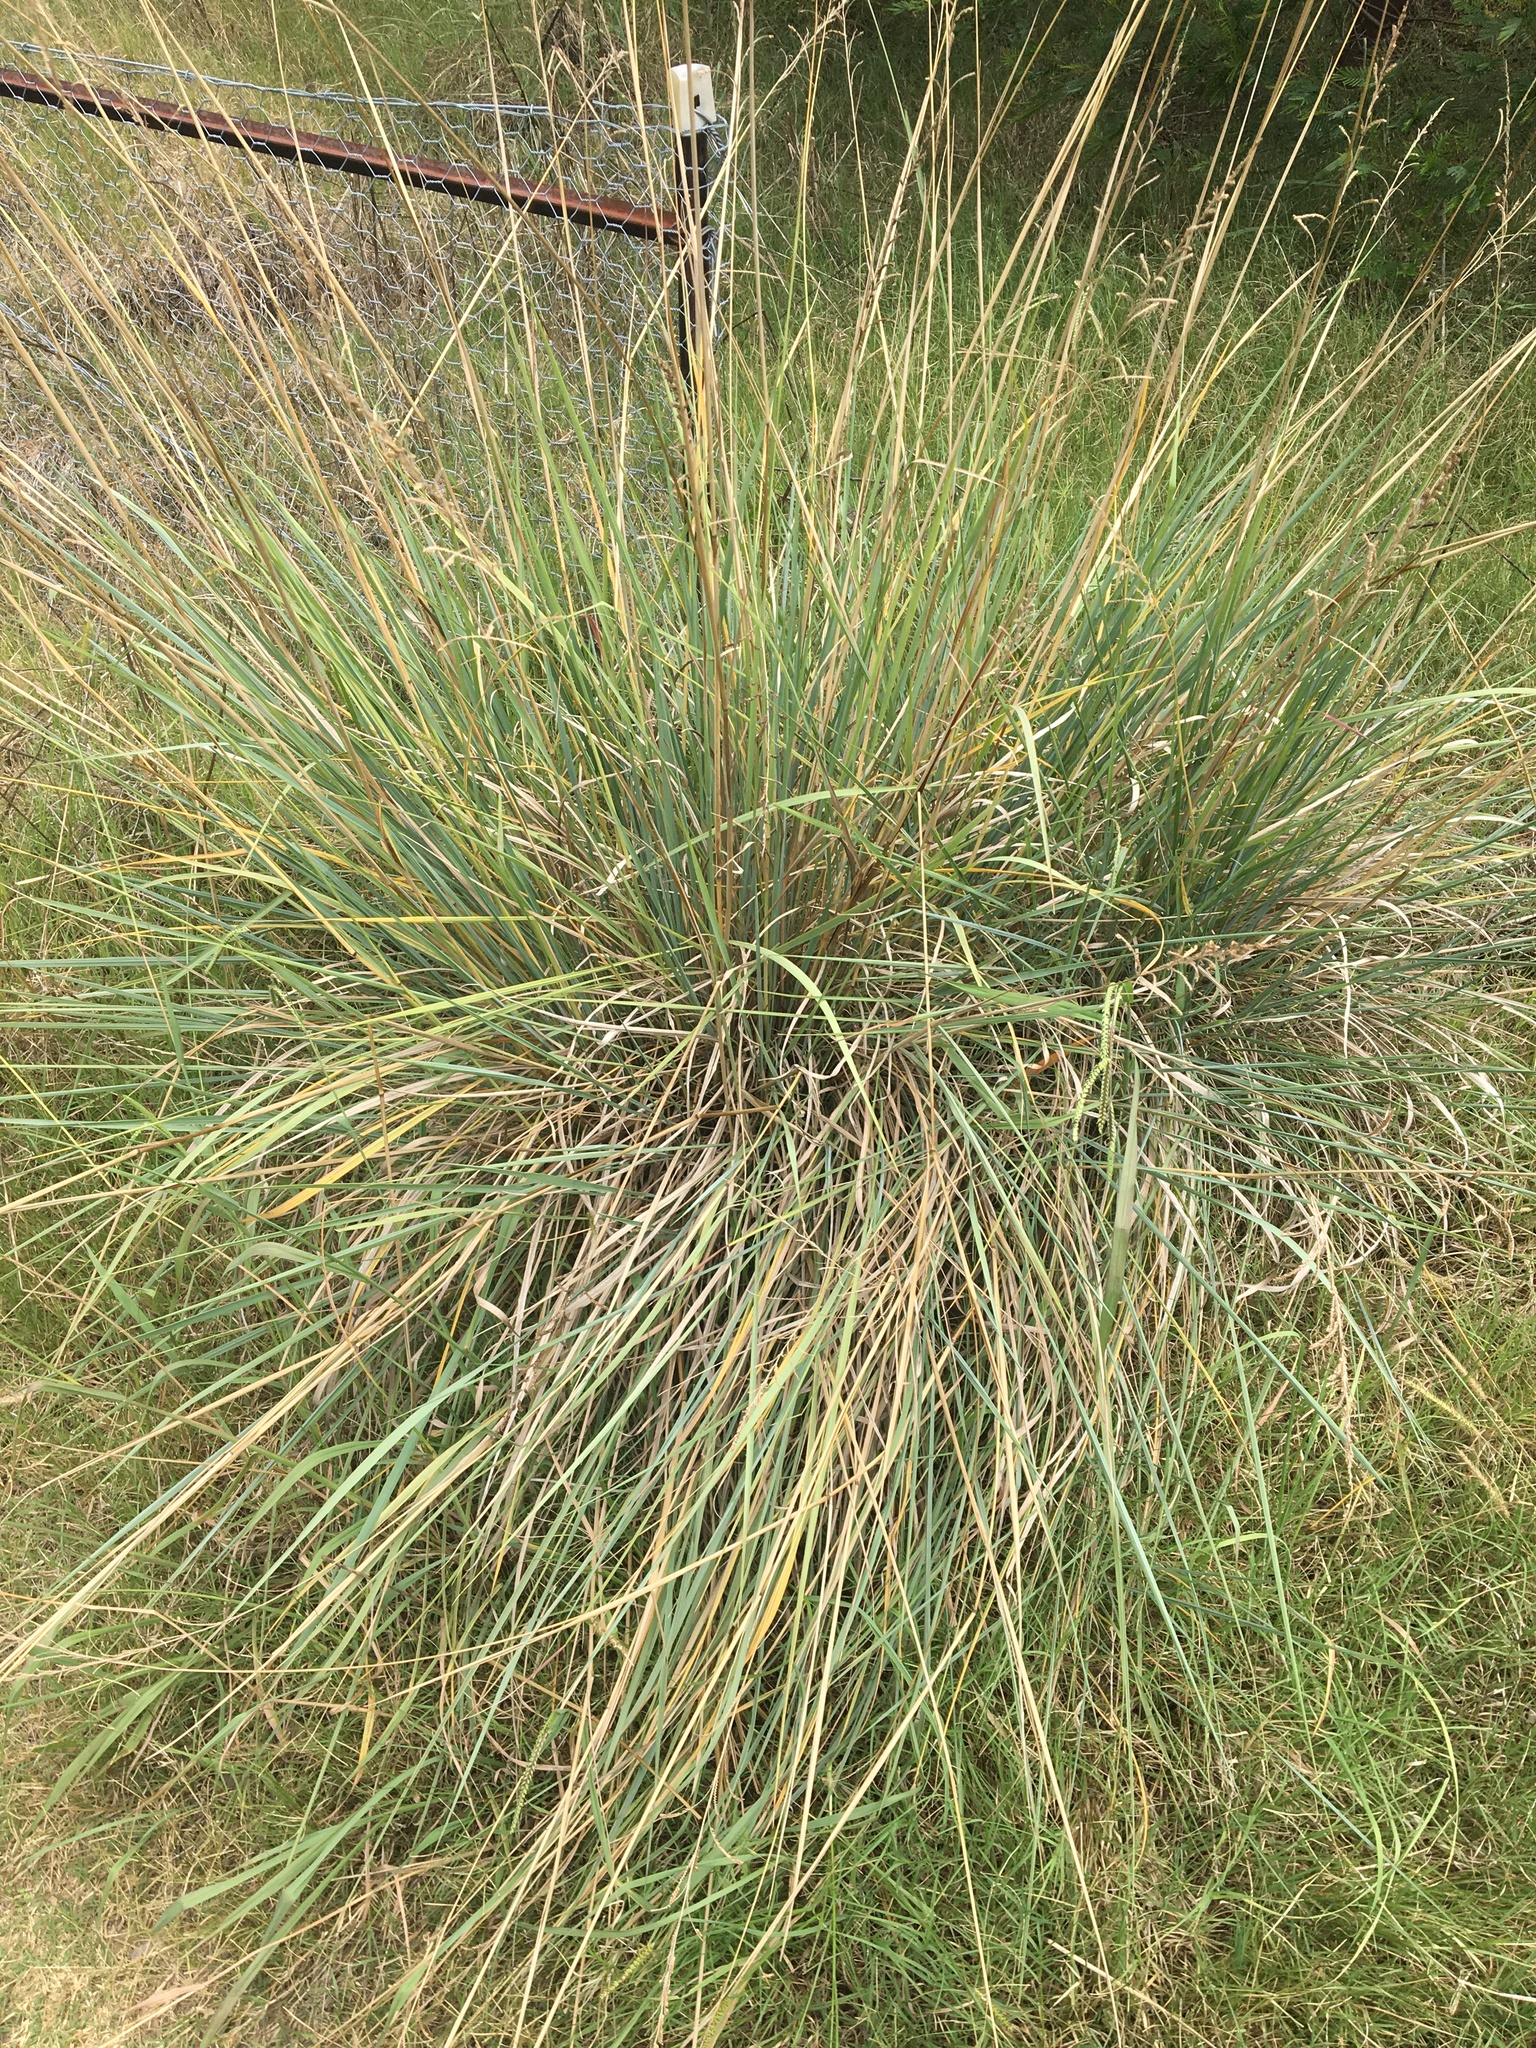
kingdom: Plantae
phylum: Tracheophyta
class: Liliopsida
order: Poales
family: Poaceae
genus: Paspalum
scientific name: Paspalum quadrifarium
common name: Tussock paspalum
